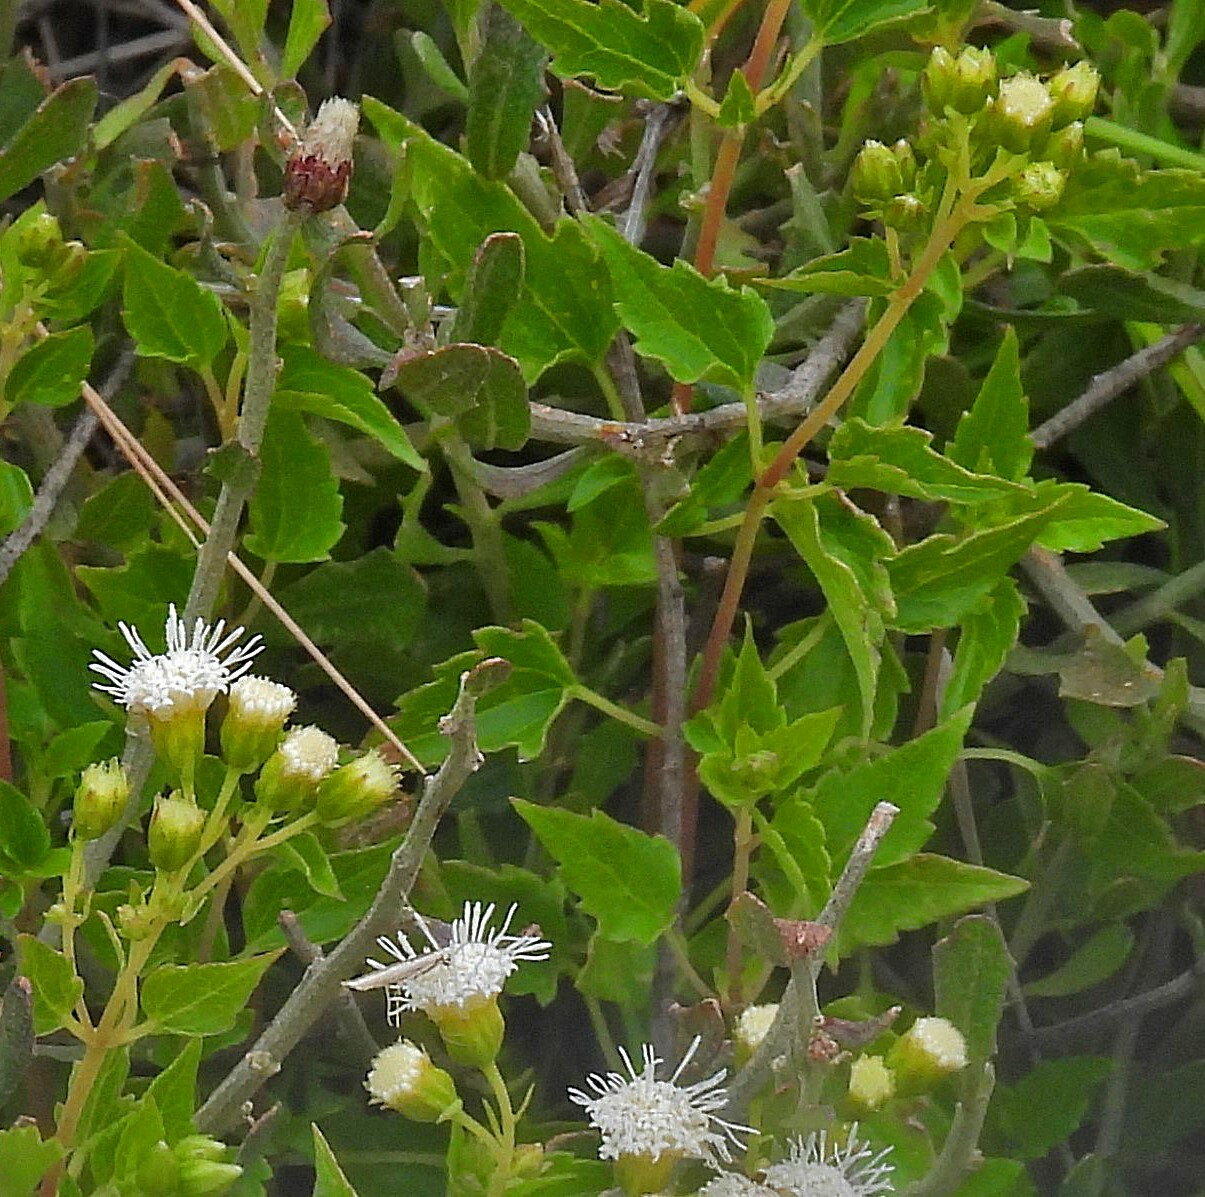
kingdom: Plantae
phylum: Tracheophyta
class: Magnoliopsida
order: Asterales
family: Asteraceae
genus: Ageratina
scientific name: Ageratina glechonophylla
